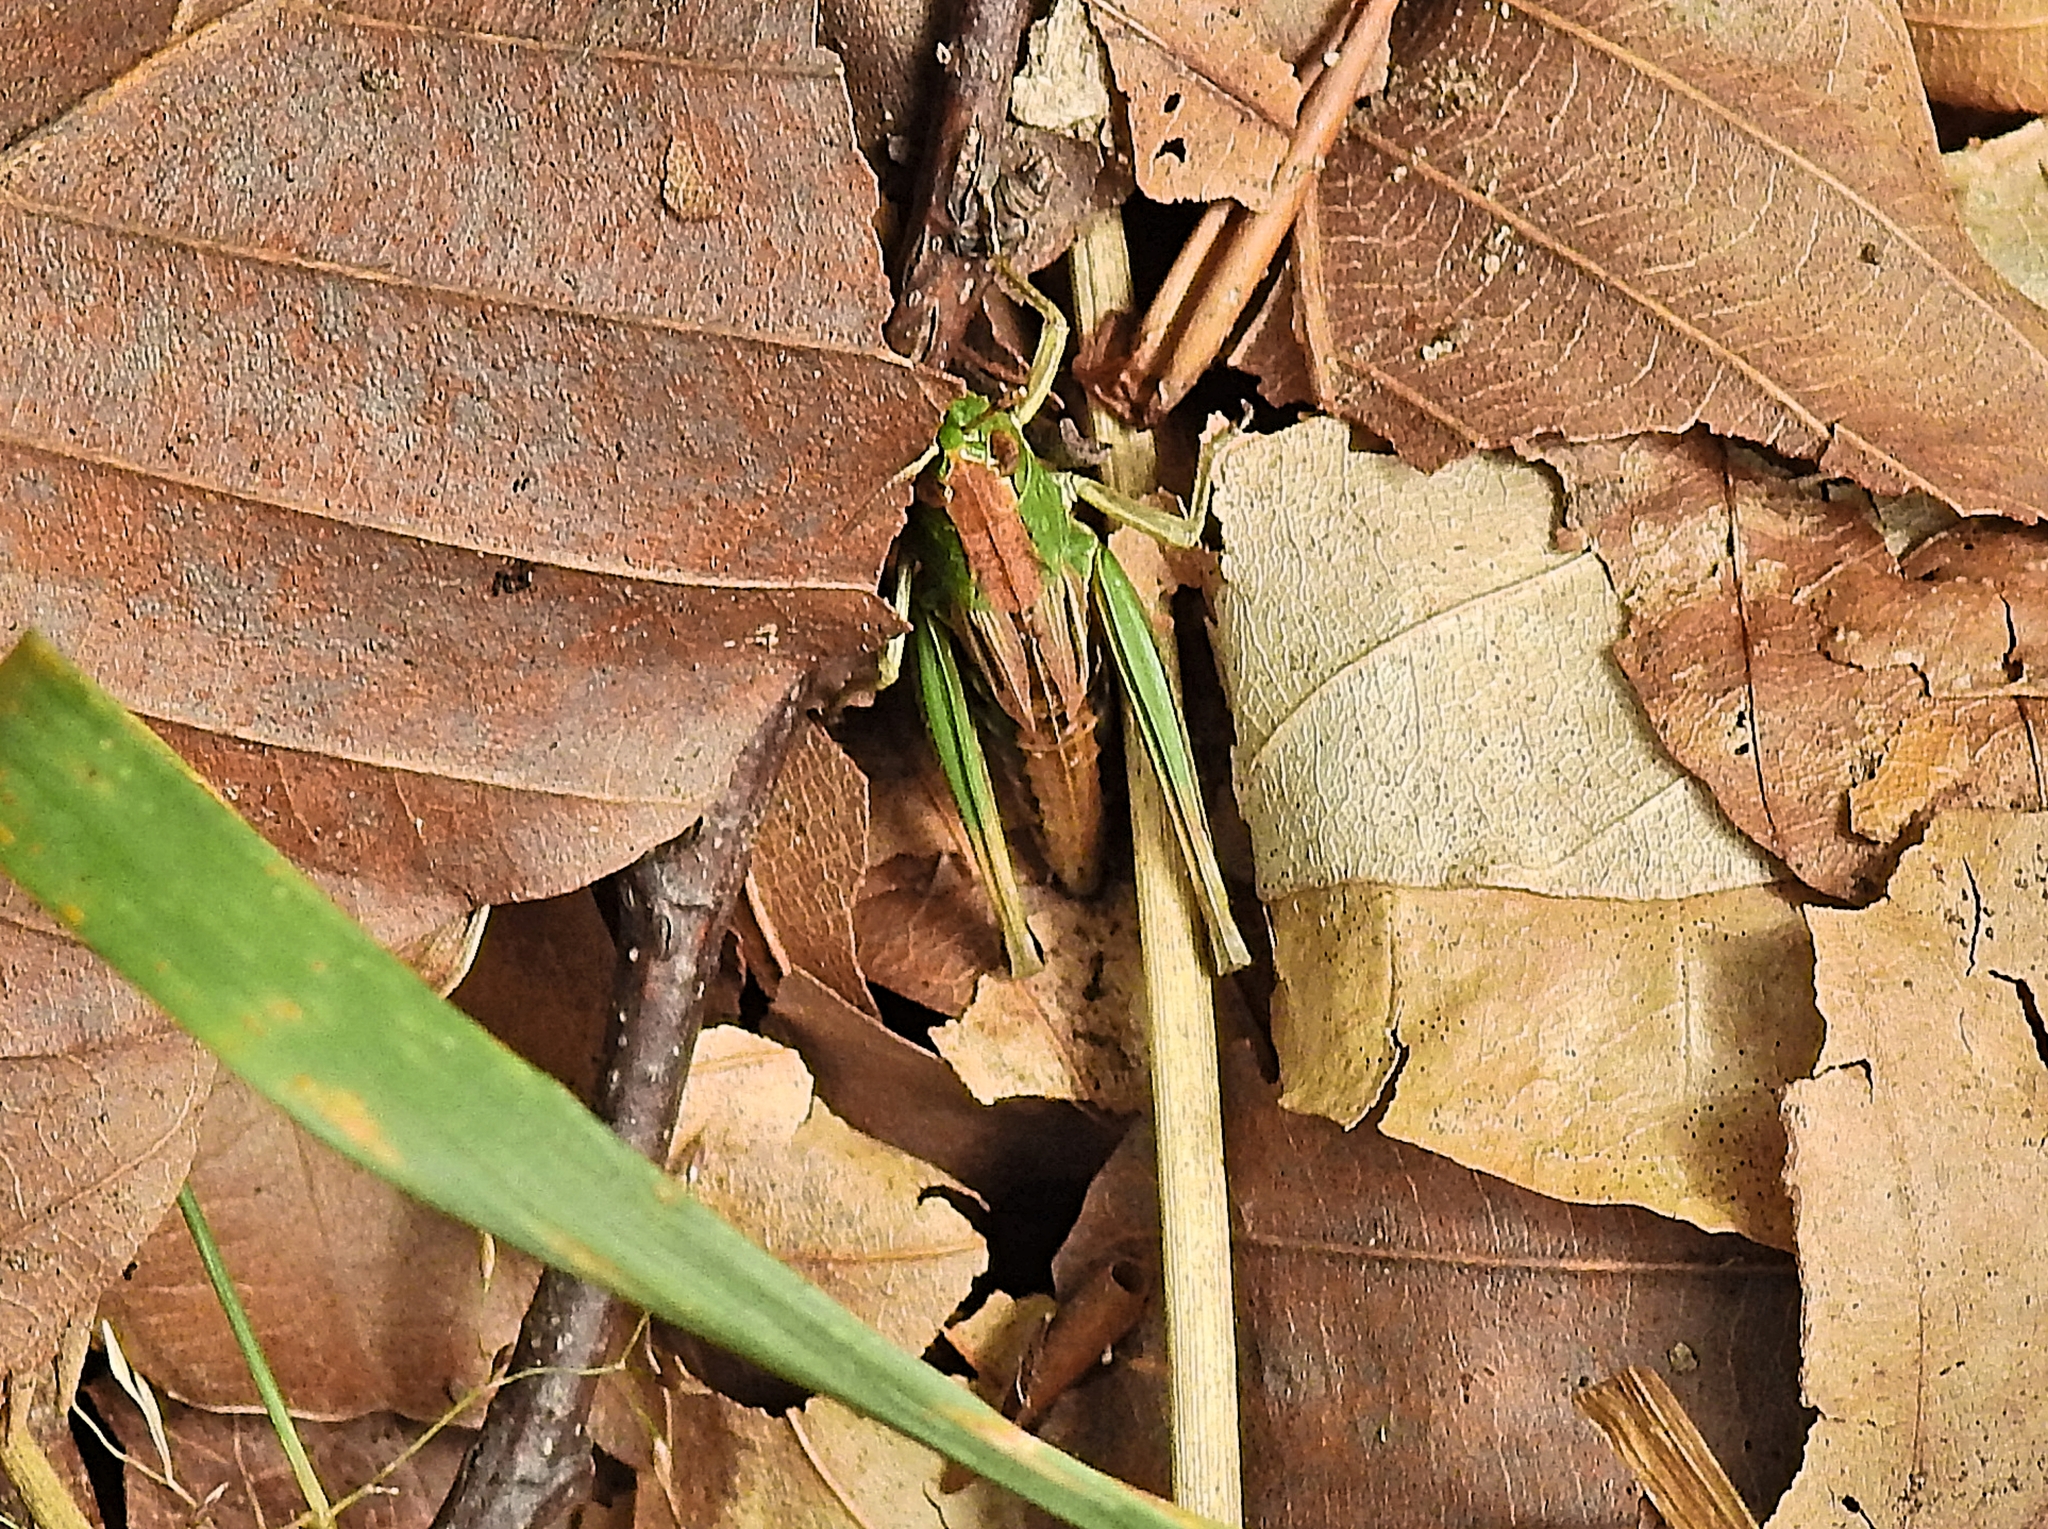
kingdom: Animalia
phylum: Arthropoda
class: Insecta
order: Orthoptera
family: Acrididae
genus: Pseudochorthippus
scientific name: Pseudochorthippus parallelus
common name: Meadow grasshopper
